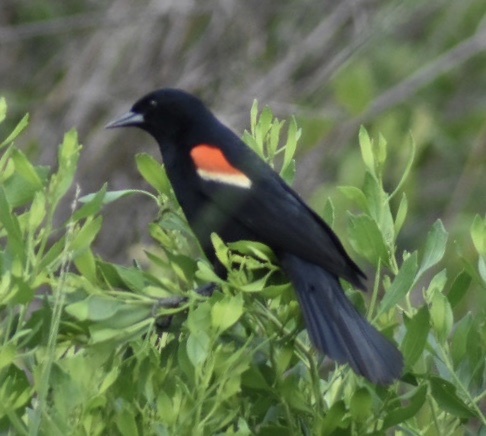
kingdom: Animalia
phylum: Chordata
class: Aves
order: Passeriformes
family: Icteridae
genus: Agelaius
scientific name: Agelaius phoeniceus
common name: Red-winged blackbird
